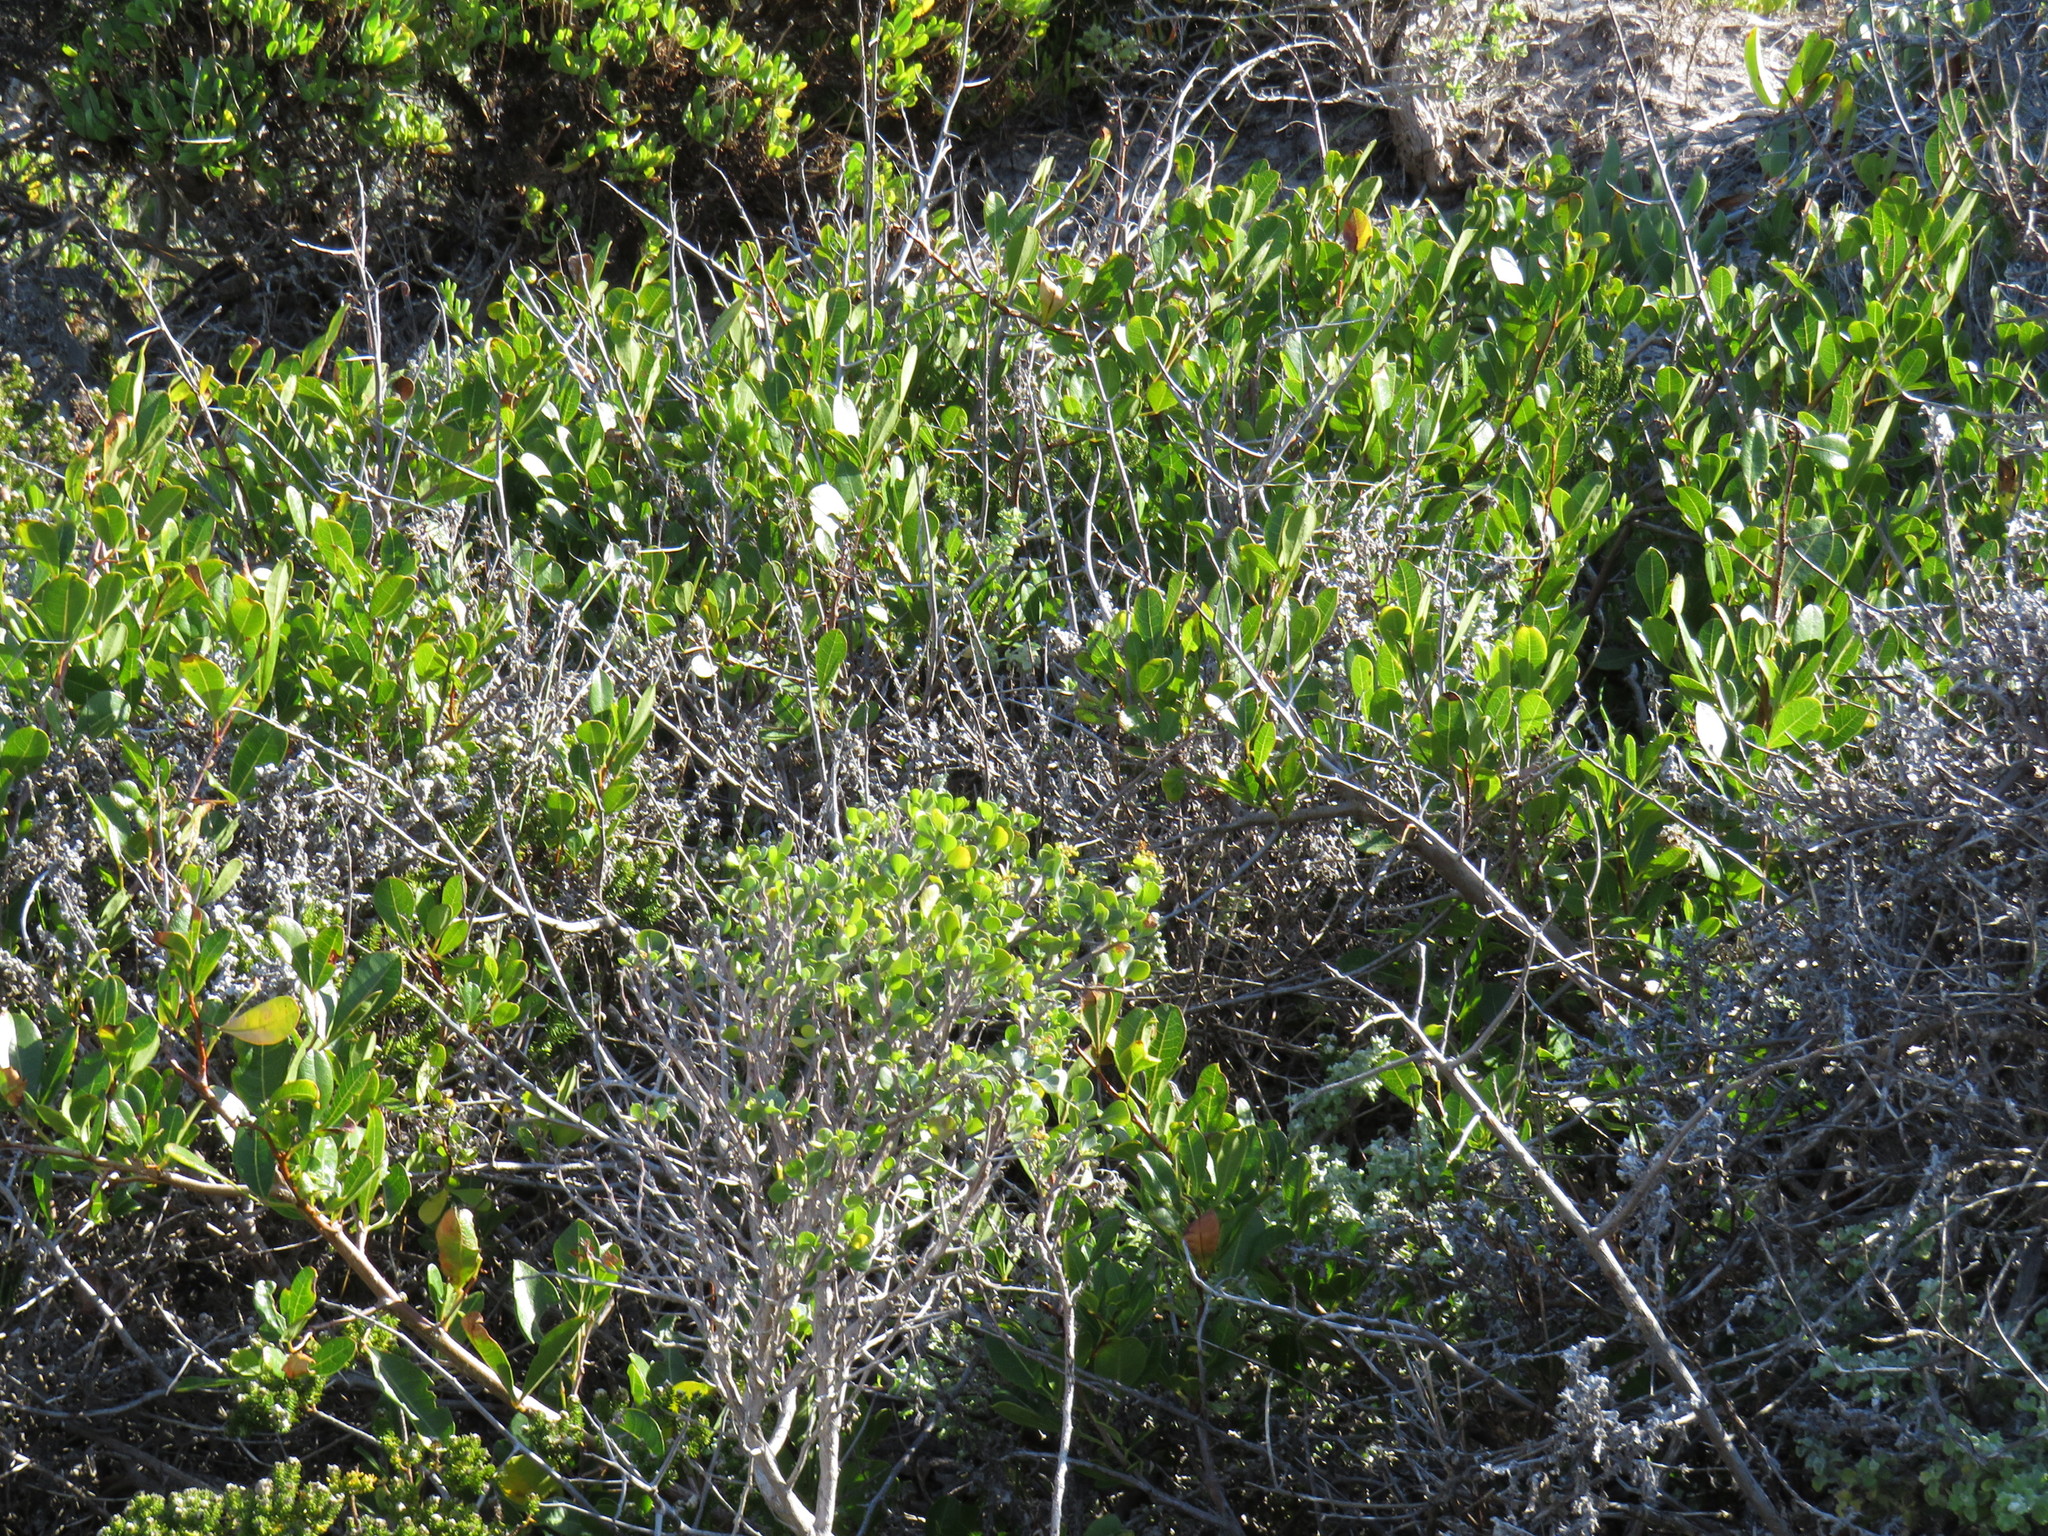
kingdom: Plantae
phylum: Tracheophyta
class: Magnoliopsida
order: Sapindales
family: Anacardiaceae
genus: Searsia
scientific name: Searsia laevigata
